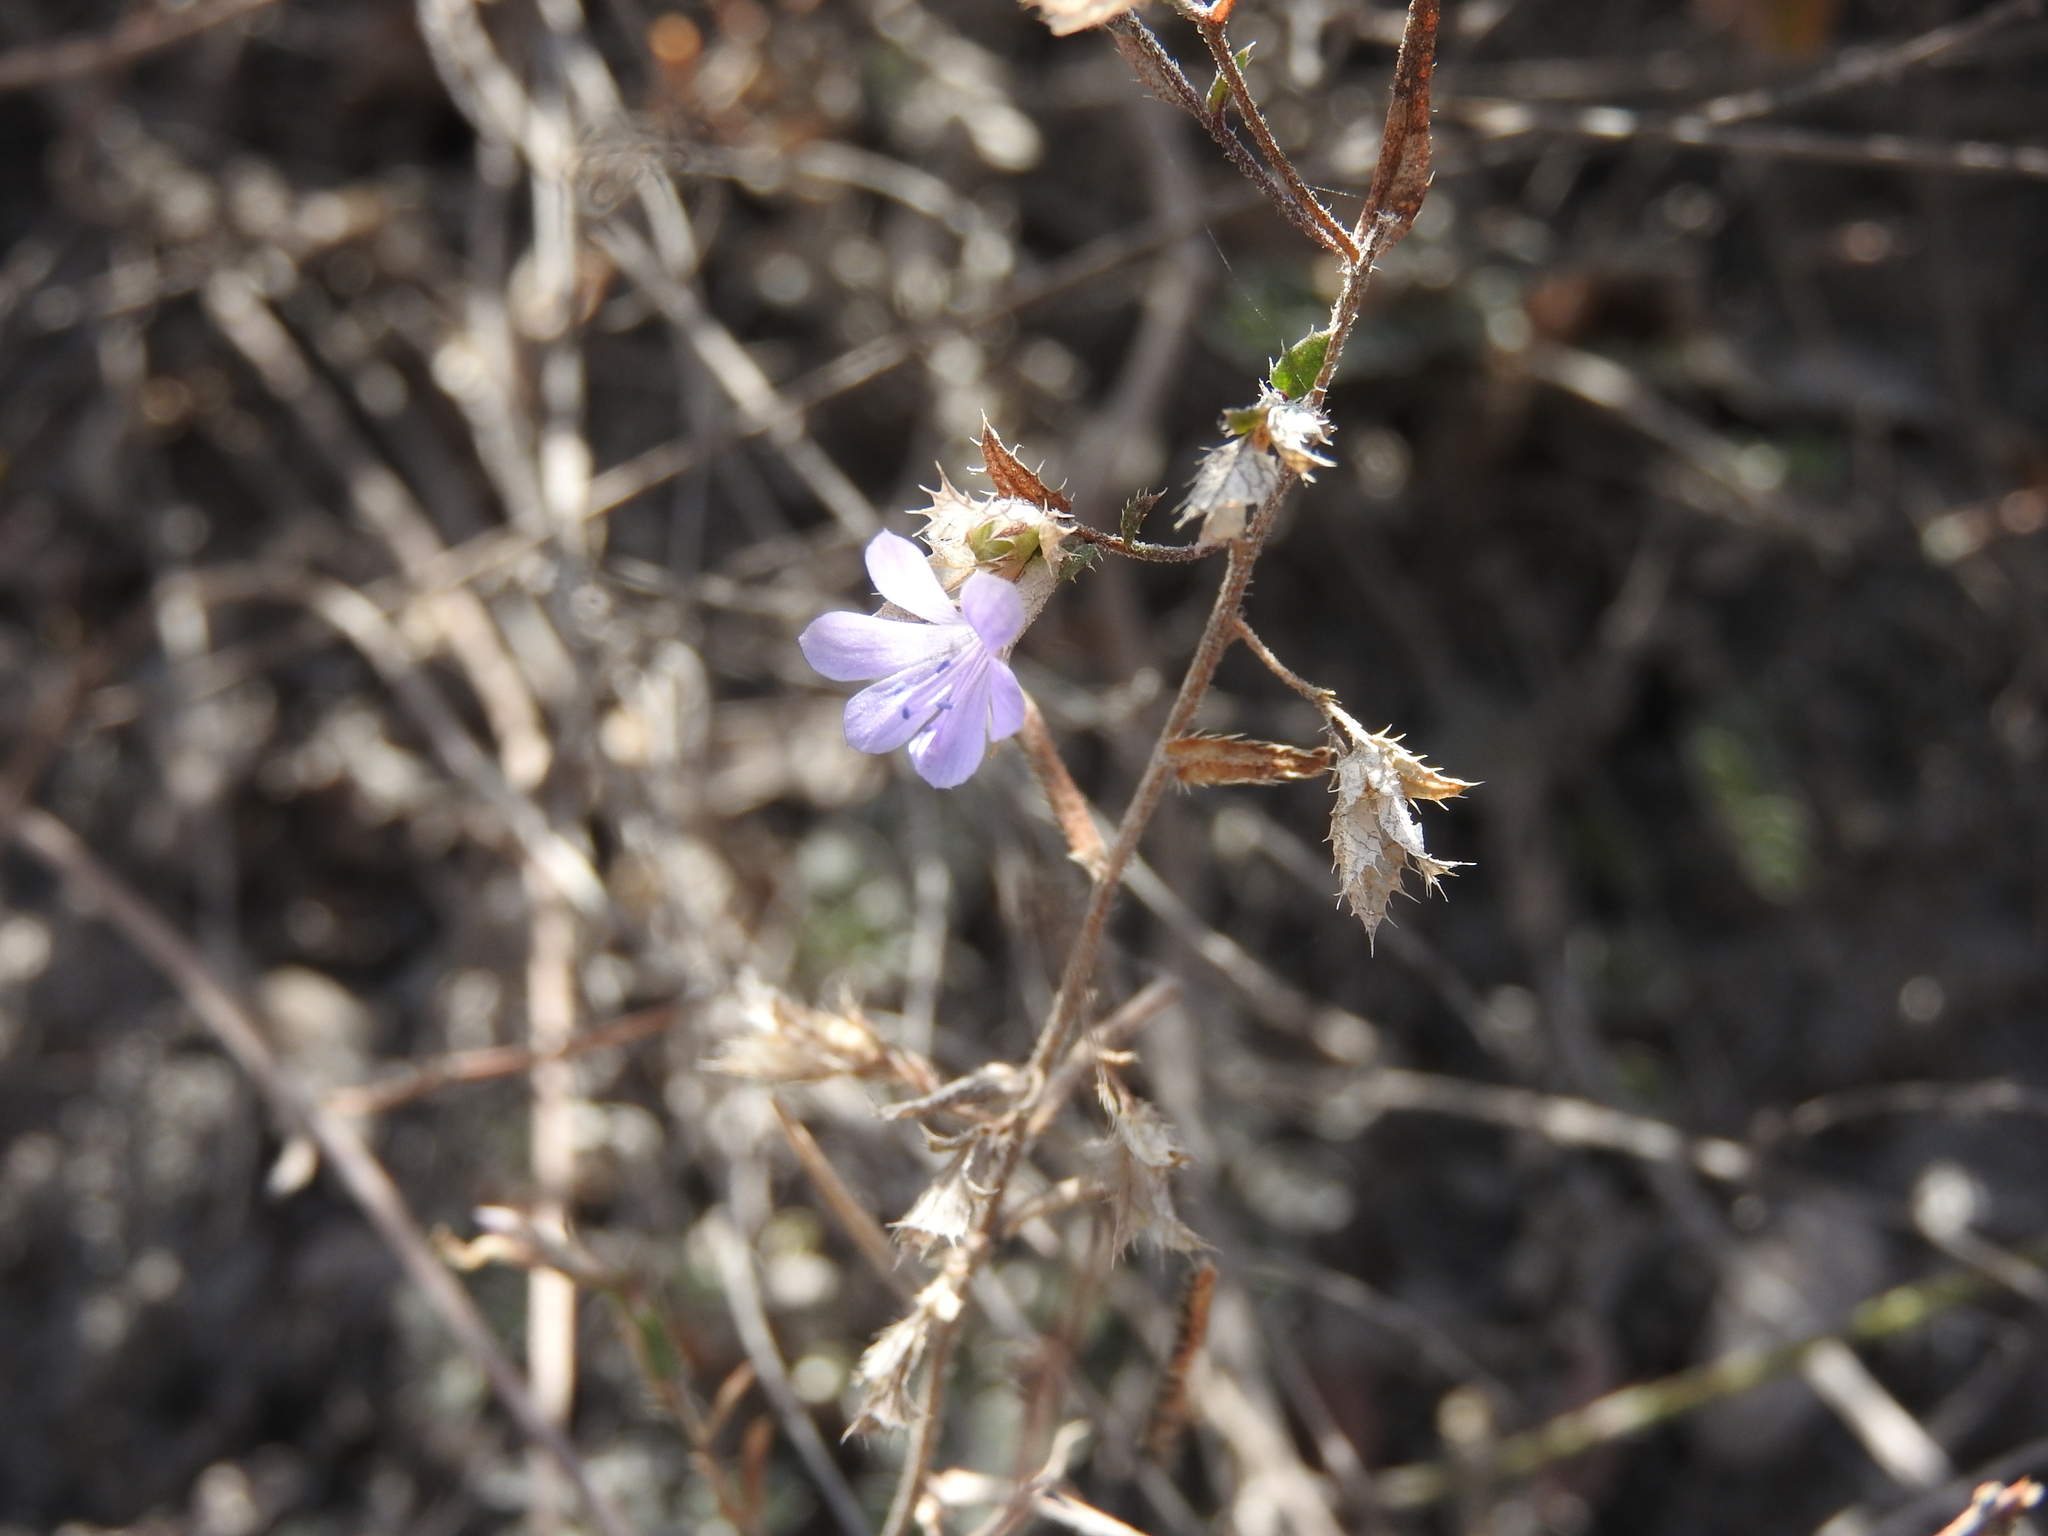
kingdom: Plantae
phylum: Tracheophyta
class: Magnoliopsida
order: Ericales
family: Polemoniaceae
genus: Loeselia
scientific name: Loeselia coerulea
